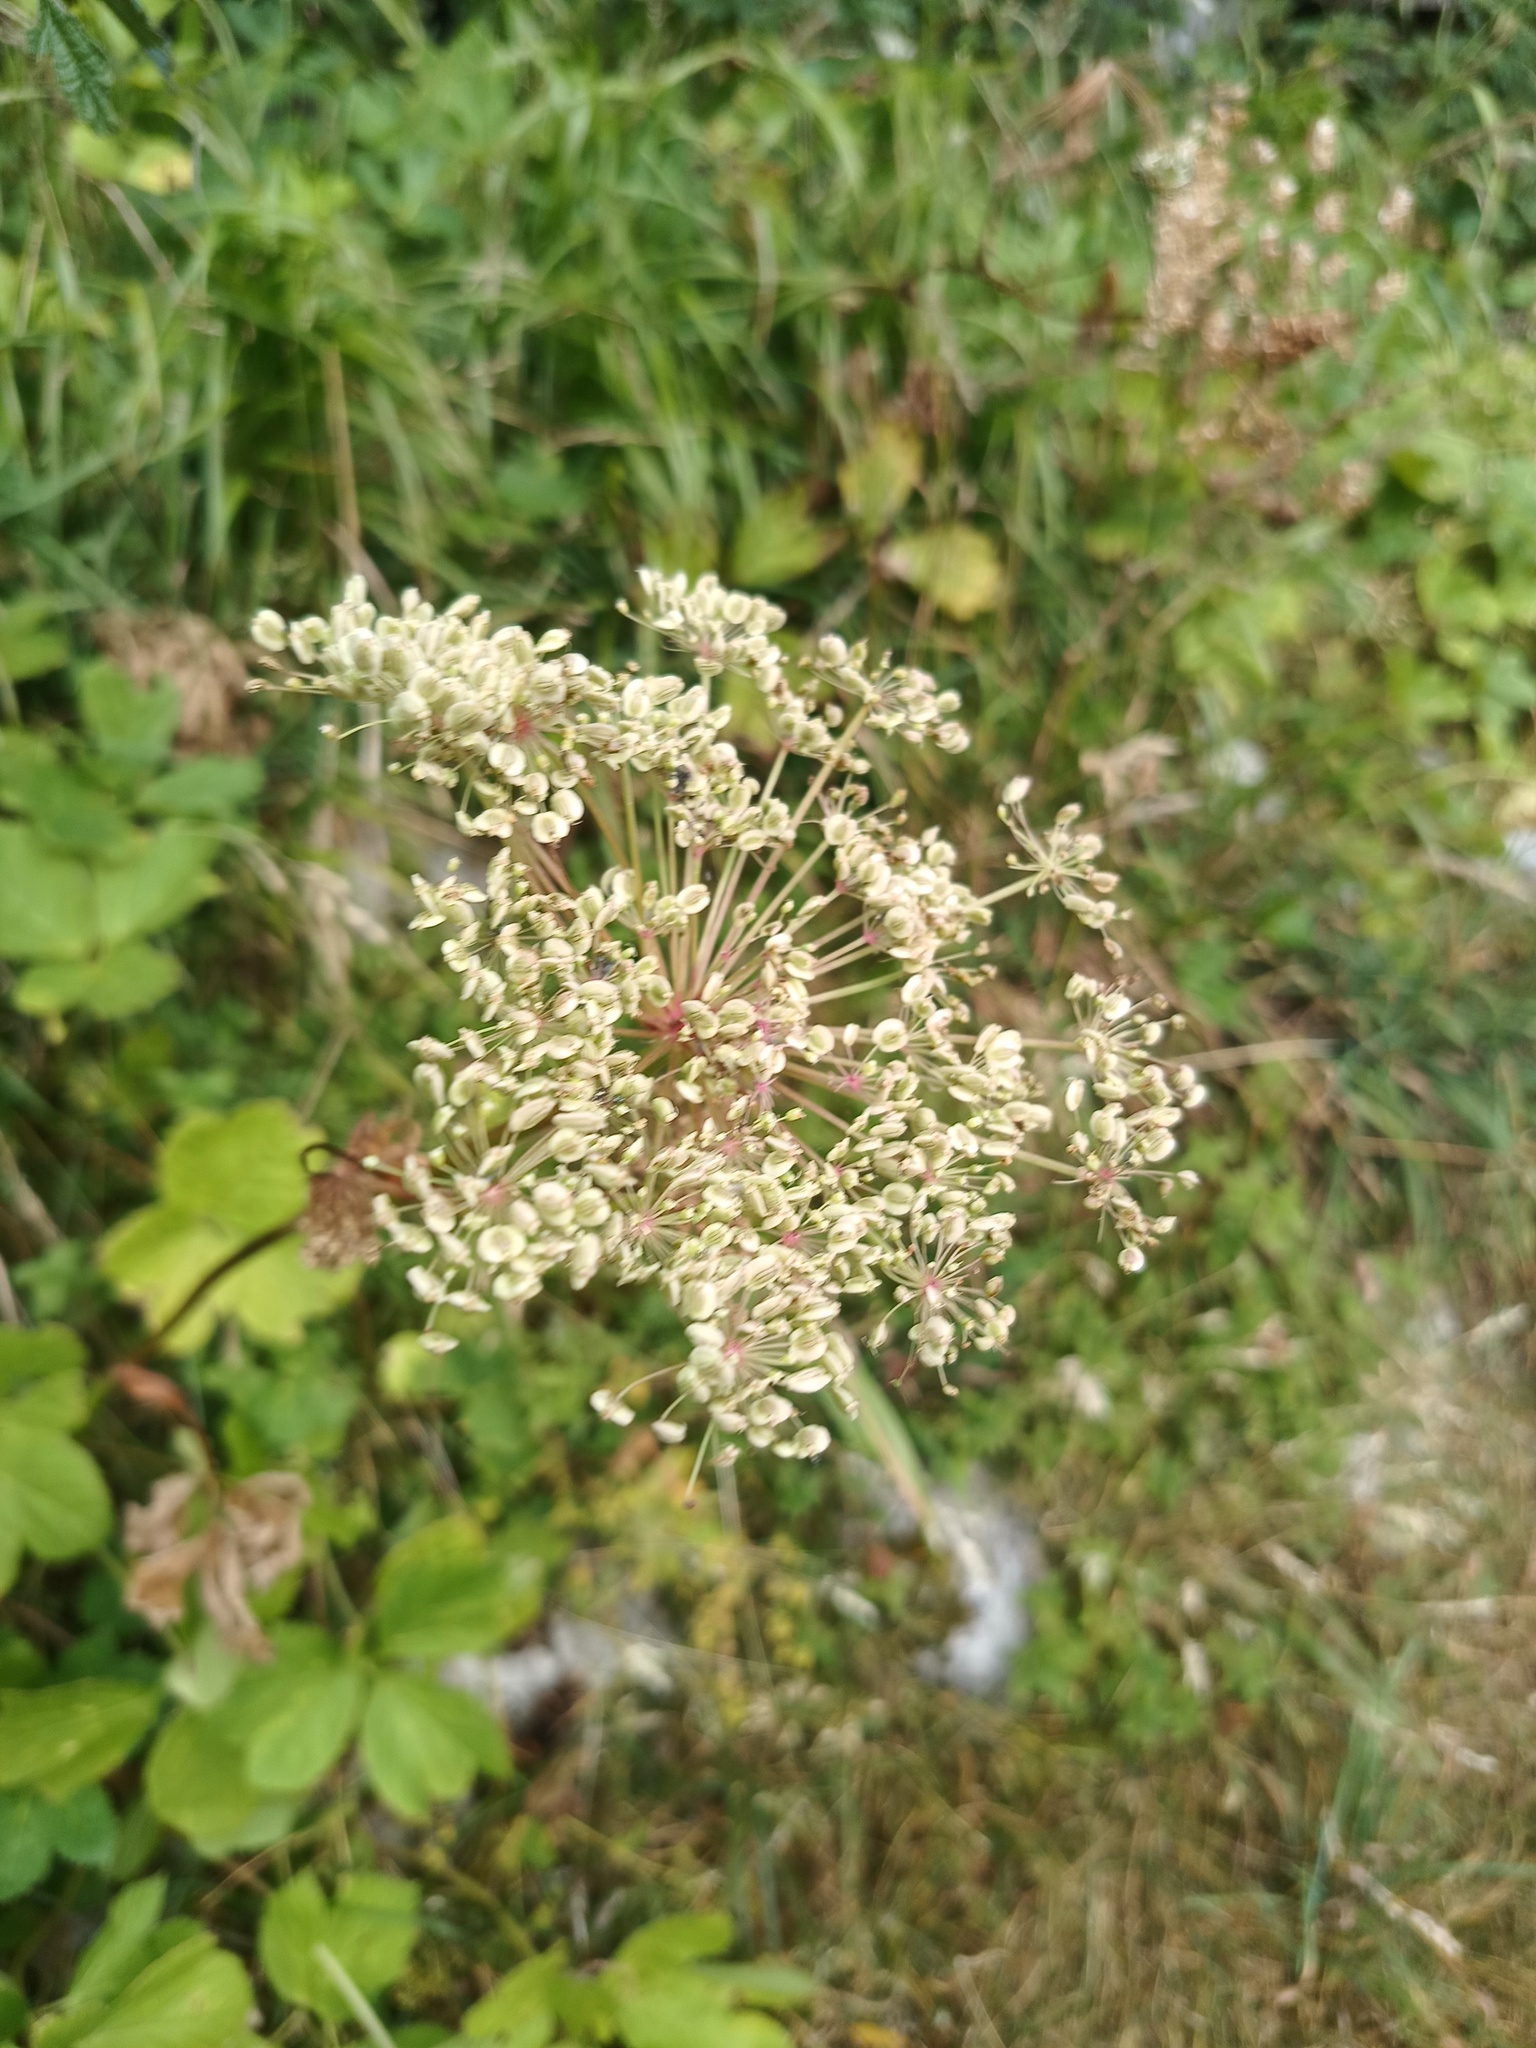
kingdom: Plantae
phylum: Tracheophyta
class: Magnoliopsida
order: Apiales
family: Apiaceae
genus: Imperatoria
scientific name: Imperatoria ostruthium
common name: Masterwort
